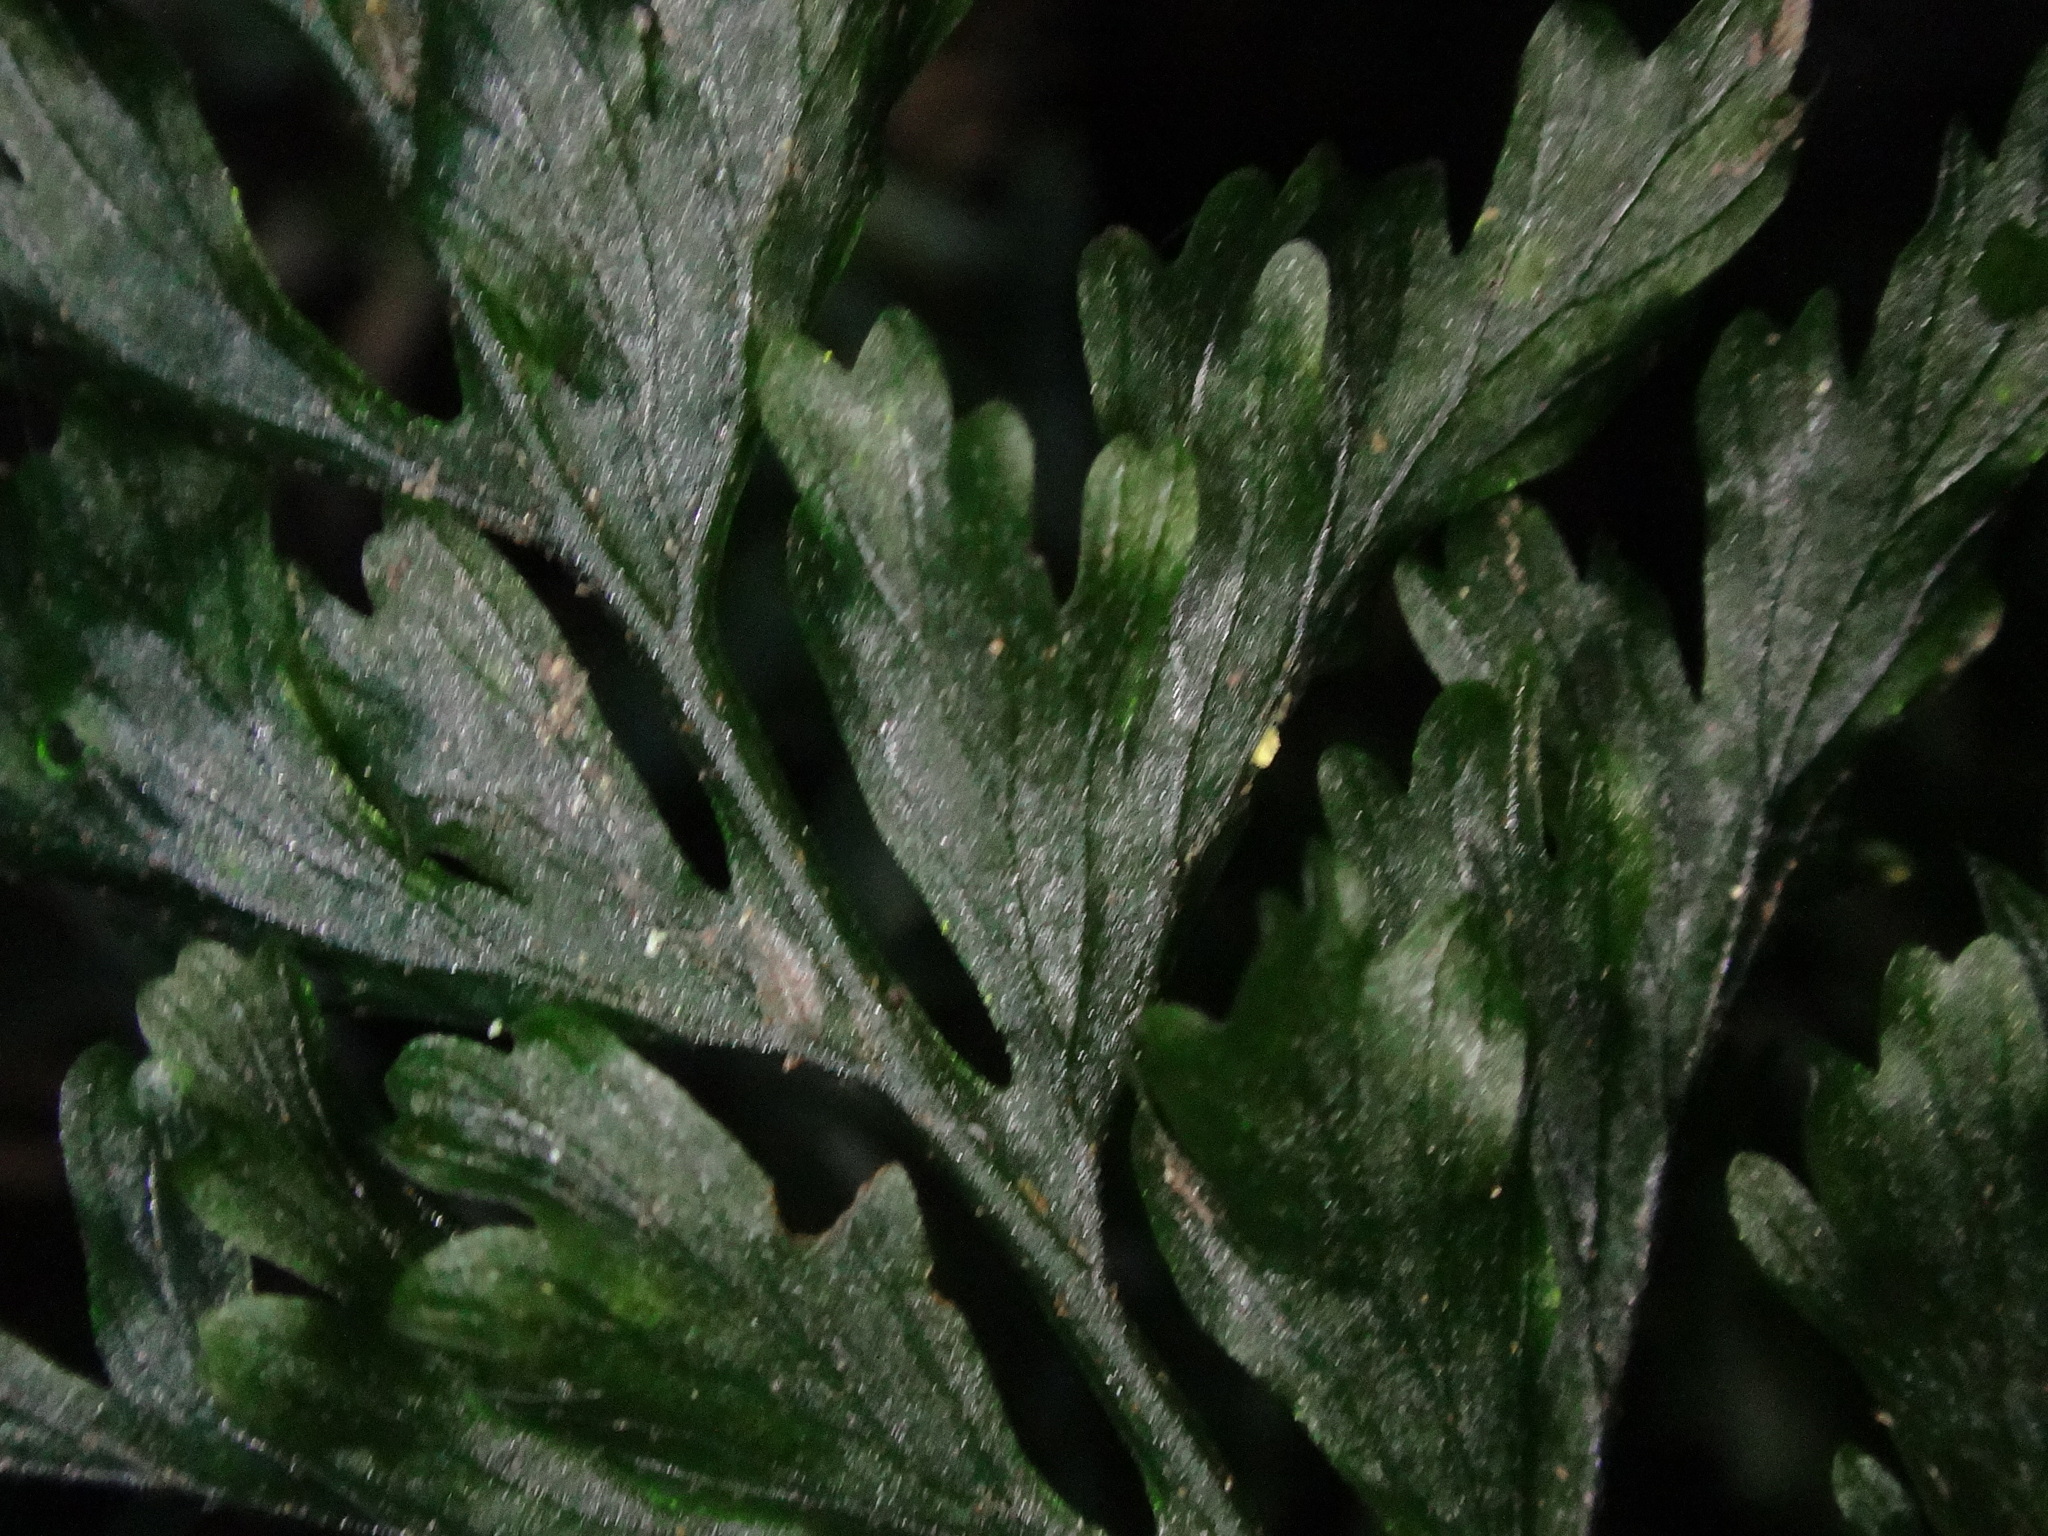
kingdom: Plantae
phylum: Tracheophyta
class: Polypodiopsida
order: Hymenophyllales
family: Hymenophyllaceae
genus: Vandenboschia
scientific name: Vandenboschia speciosa
